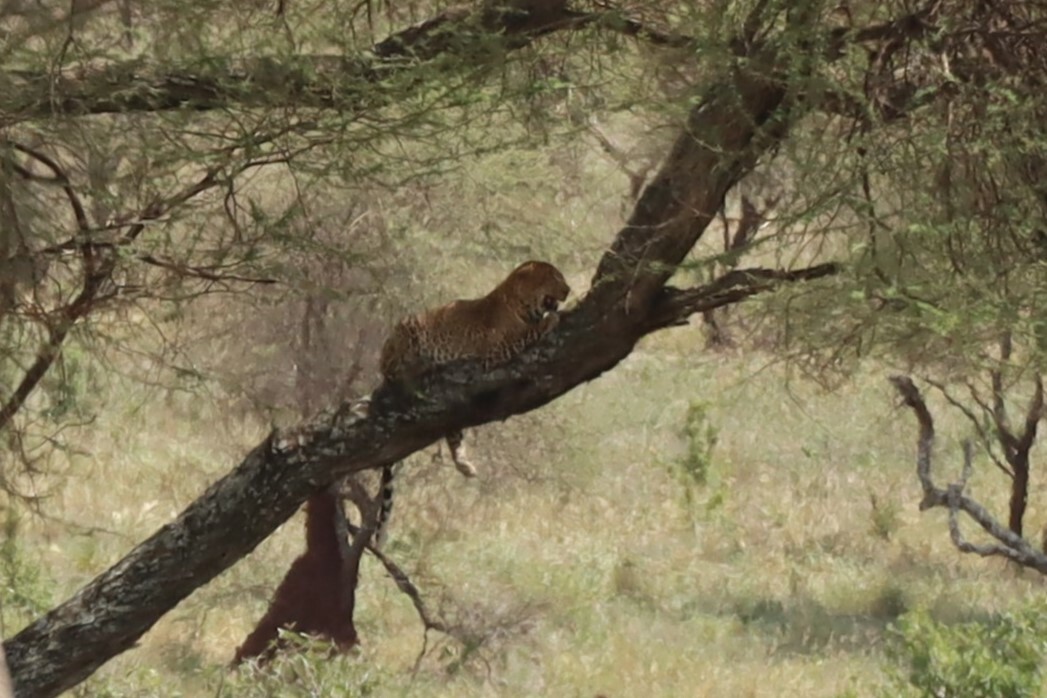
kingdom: Animalia
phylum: Chordata
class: Mammalia
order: Carnivora
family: Felidae
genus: Panthera
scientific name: Panthera pardus
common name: Leopard
